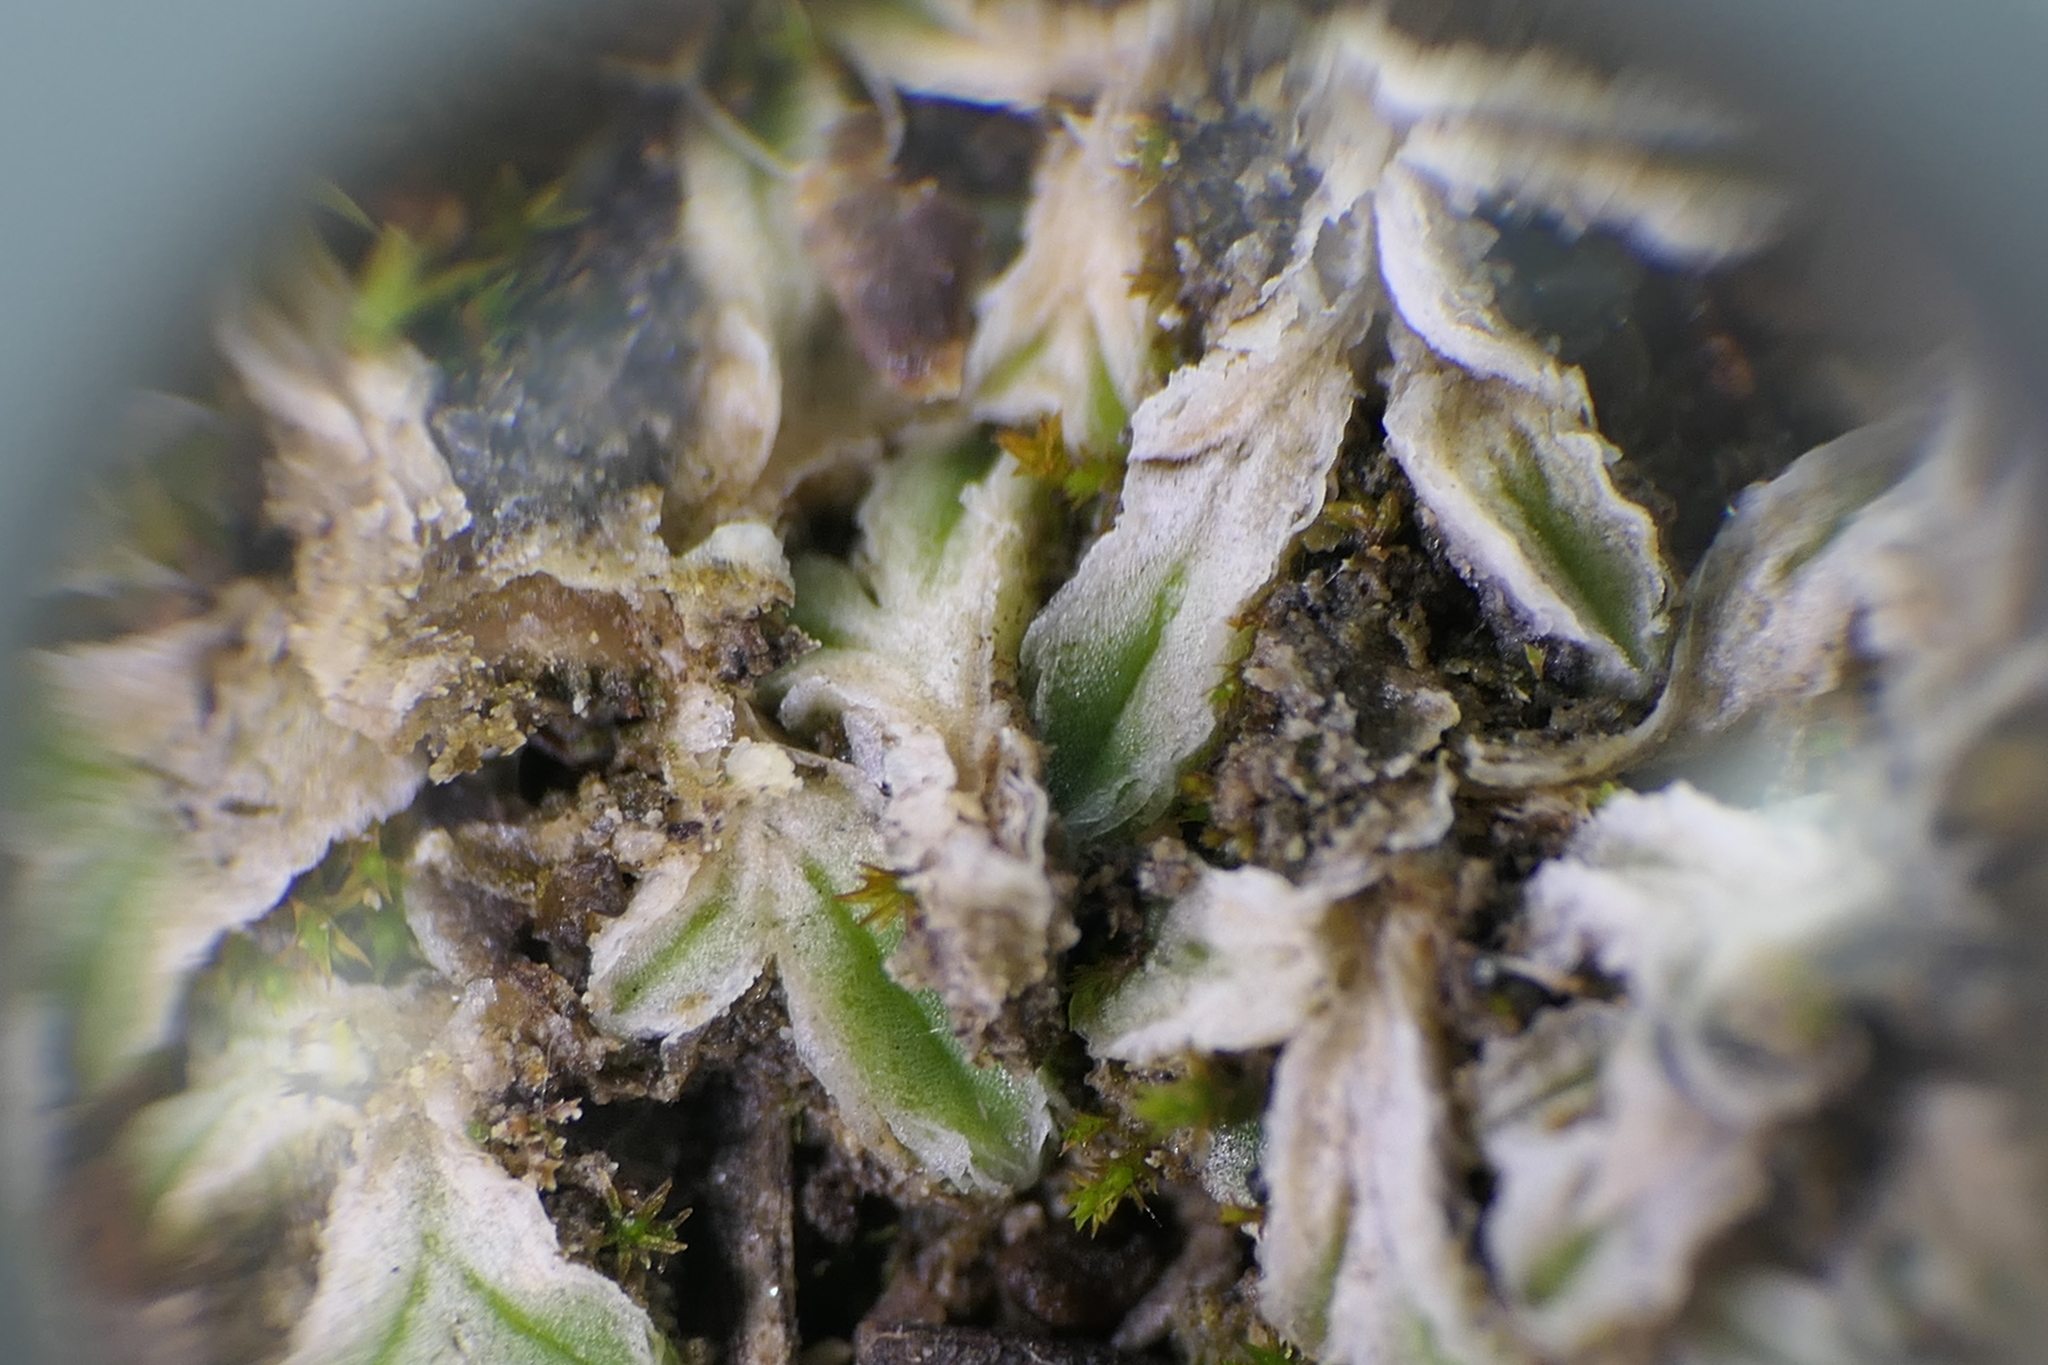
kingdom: Plantae
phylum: Marchantiophyta
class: Marchantiopsida
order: Marchantiales
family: Ricciaceae
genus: Riccia
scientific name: Riccia lamellosa
